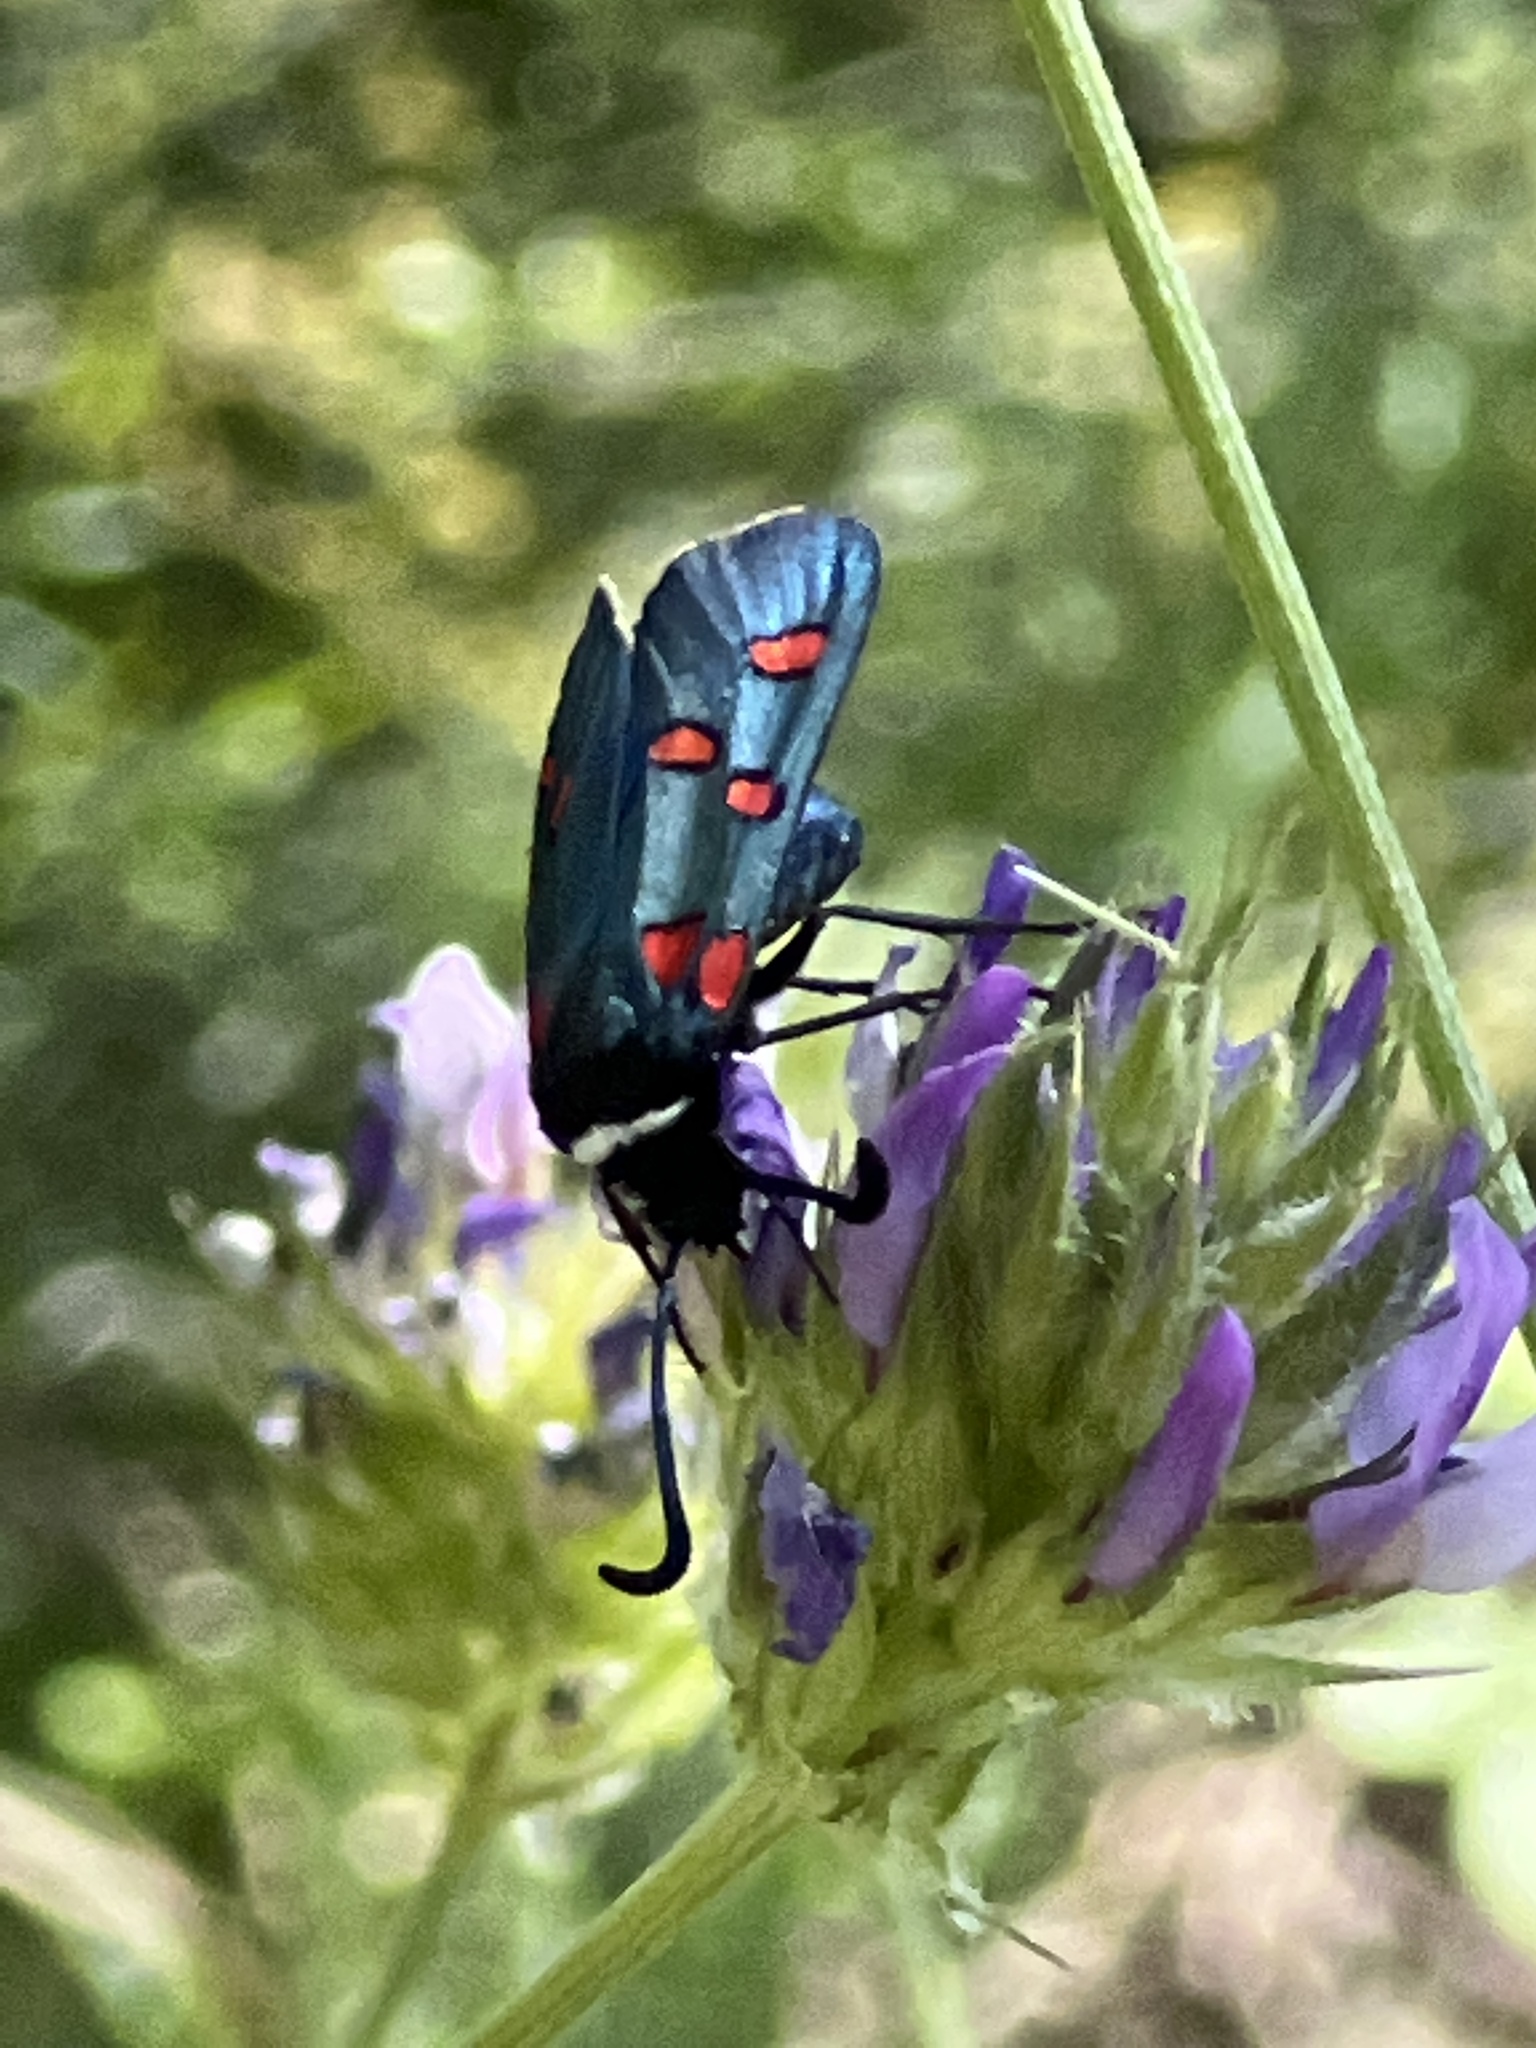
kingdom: Animalia
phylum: Arthropoda
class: Insecta
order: Lepidoptera
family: Zygaenidae
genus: Zygaena
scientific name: Zygaena lavandulae
